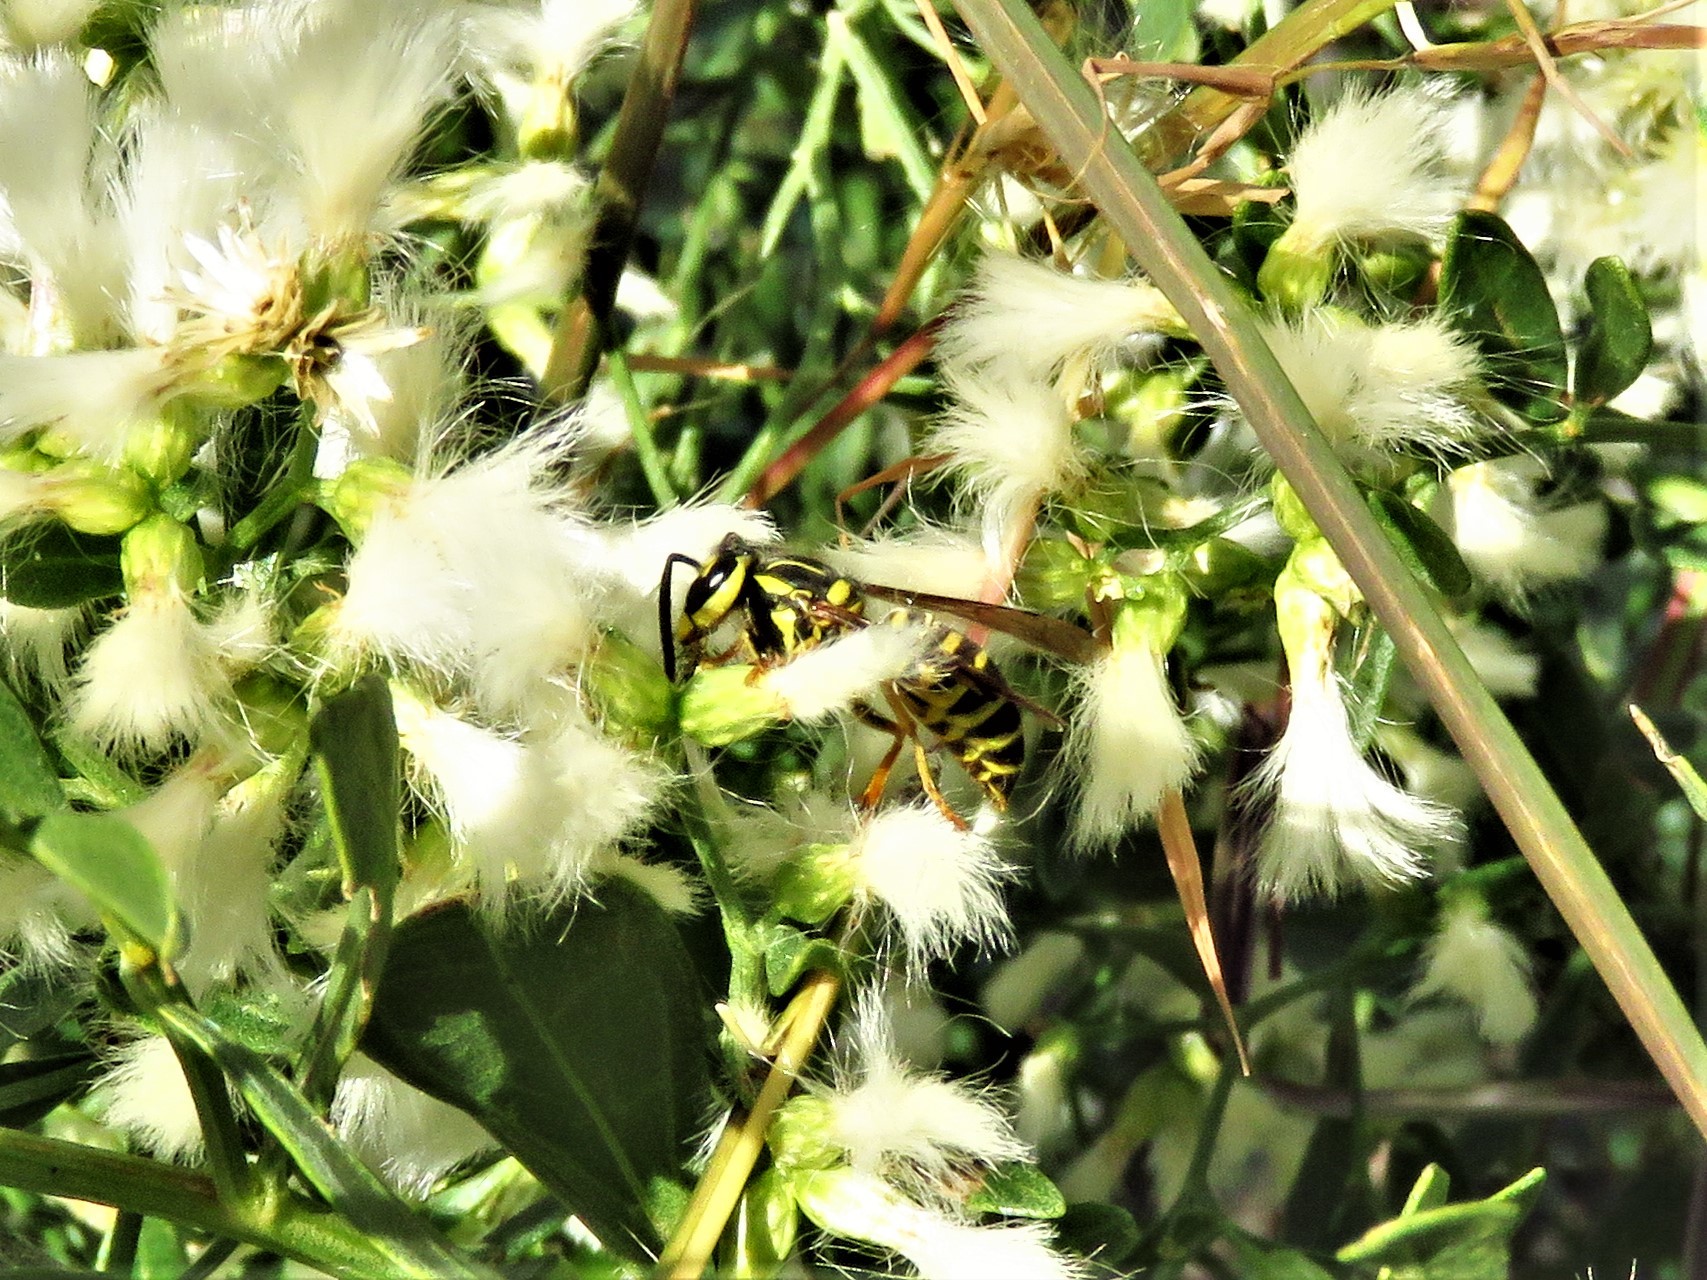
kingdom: Animalia
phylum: Arthropoda
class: Insecta
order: Hymenoptera
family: Vespidae
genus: Vespula
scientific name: Vespula squamosa
